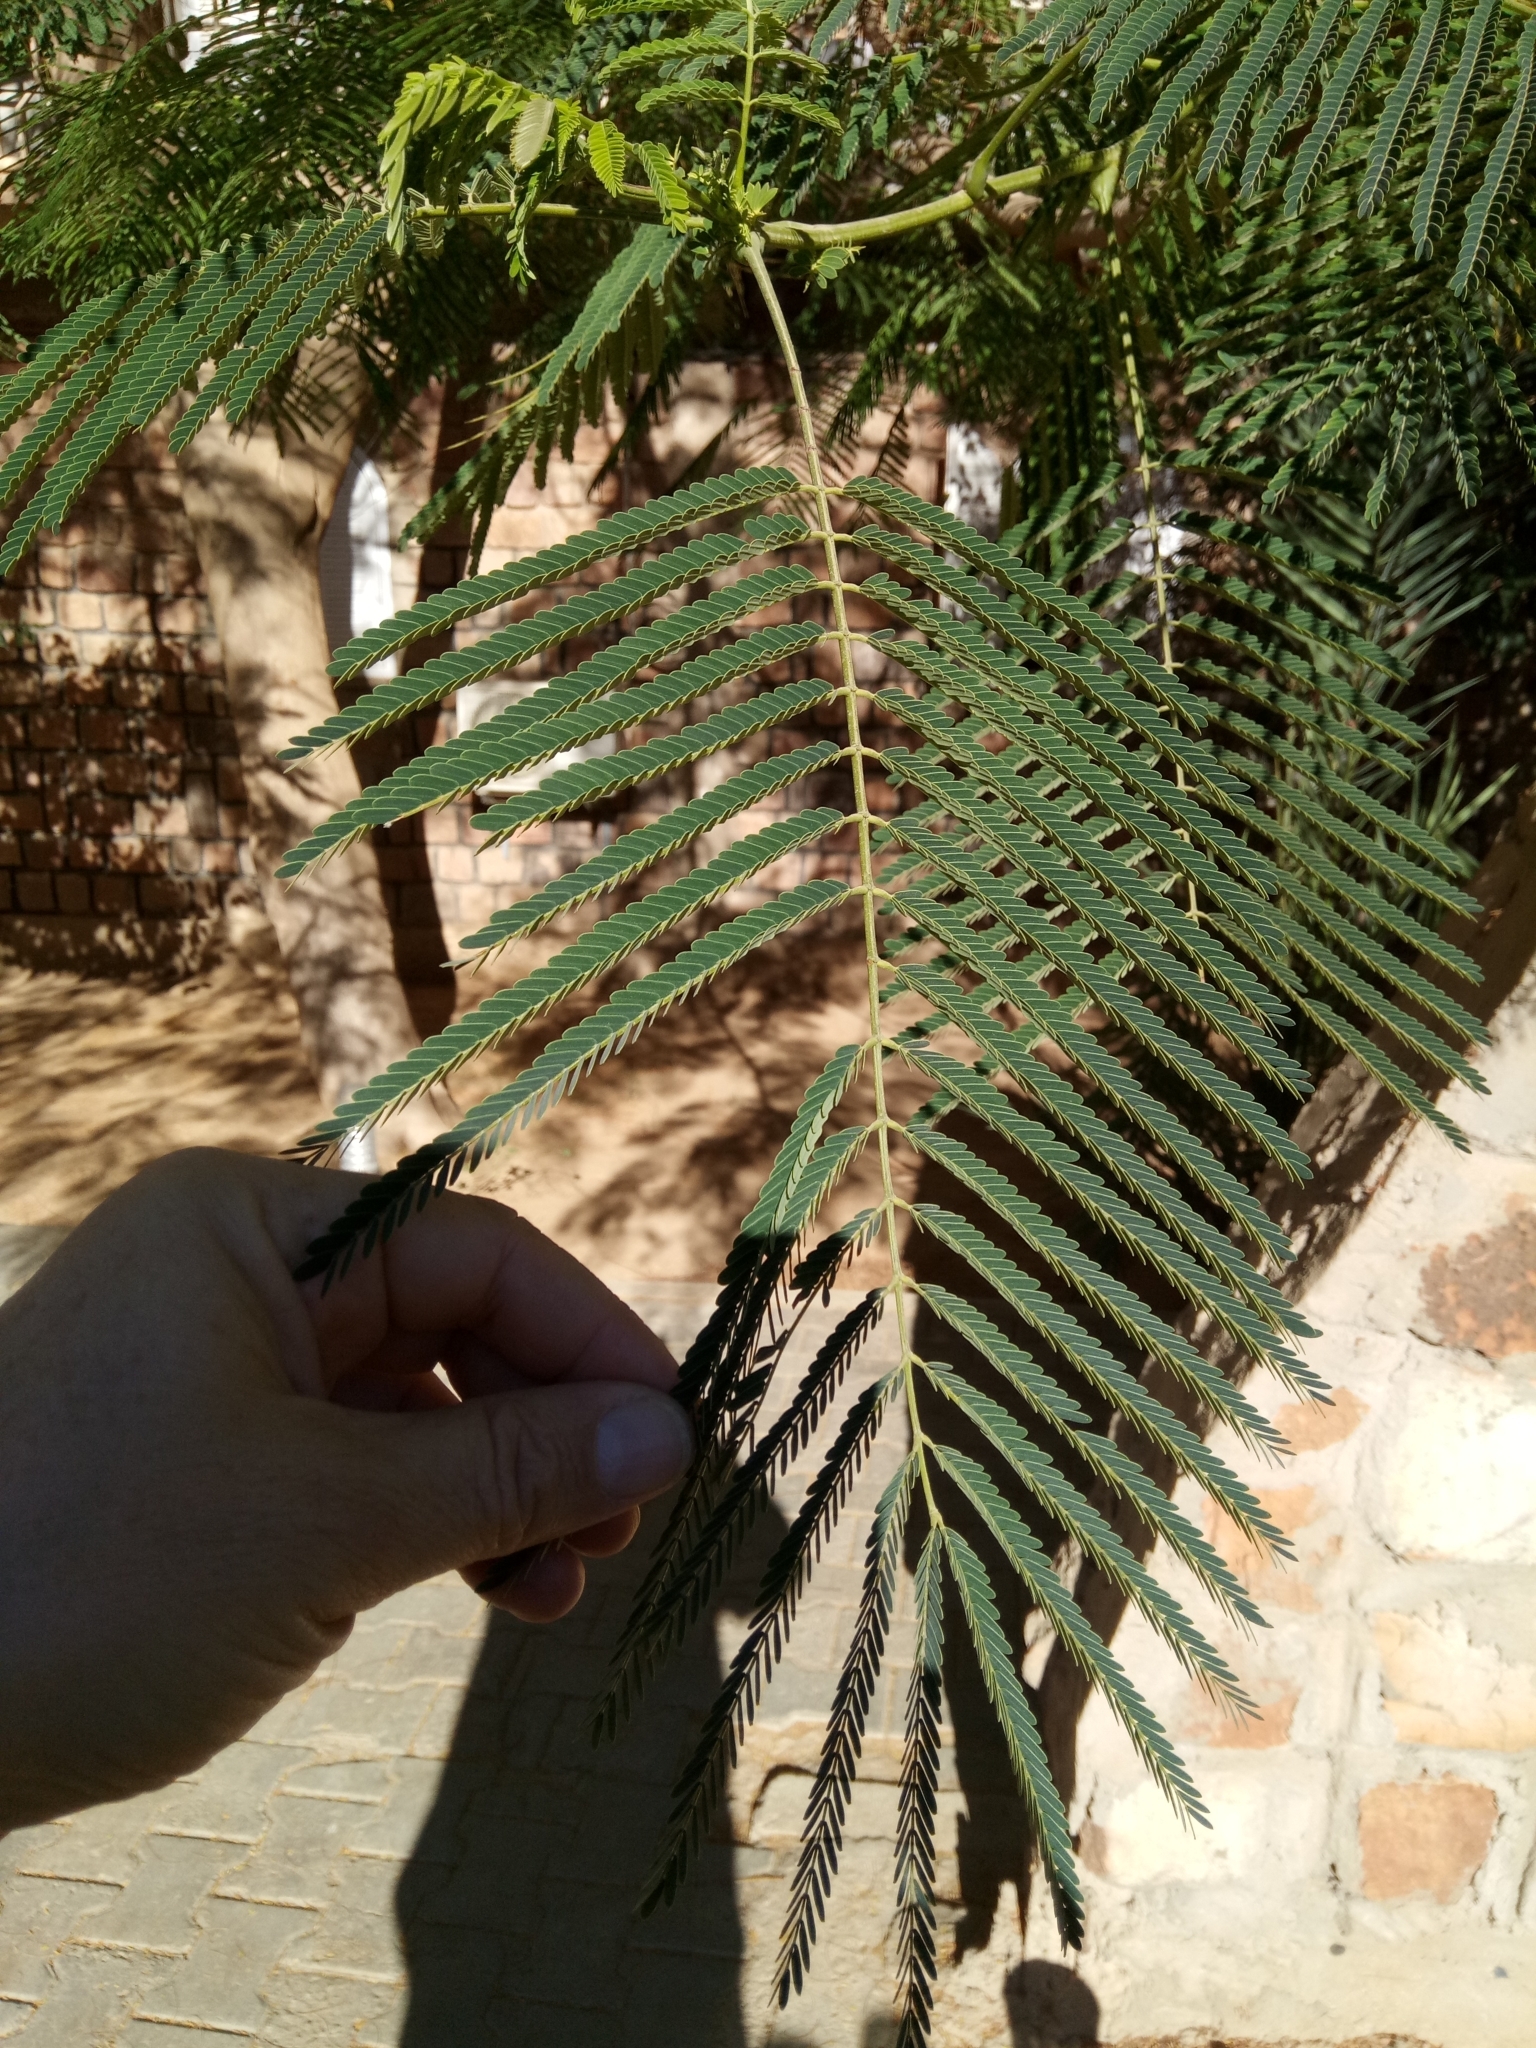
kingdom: Plantae
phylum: Tracheophyta
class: Magnoliopsida
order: Fabales
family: Fabaceae
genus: Delonix
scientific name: Delonix regia
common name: Royal poinciana
